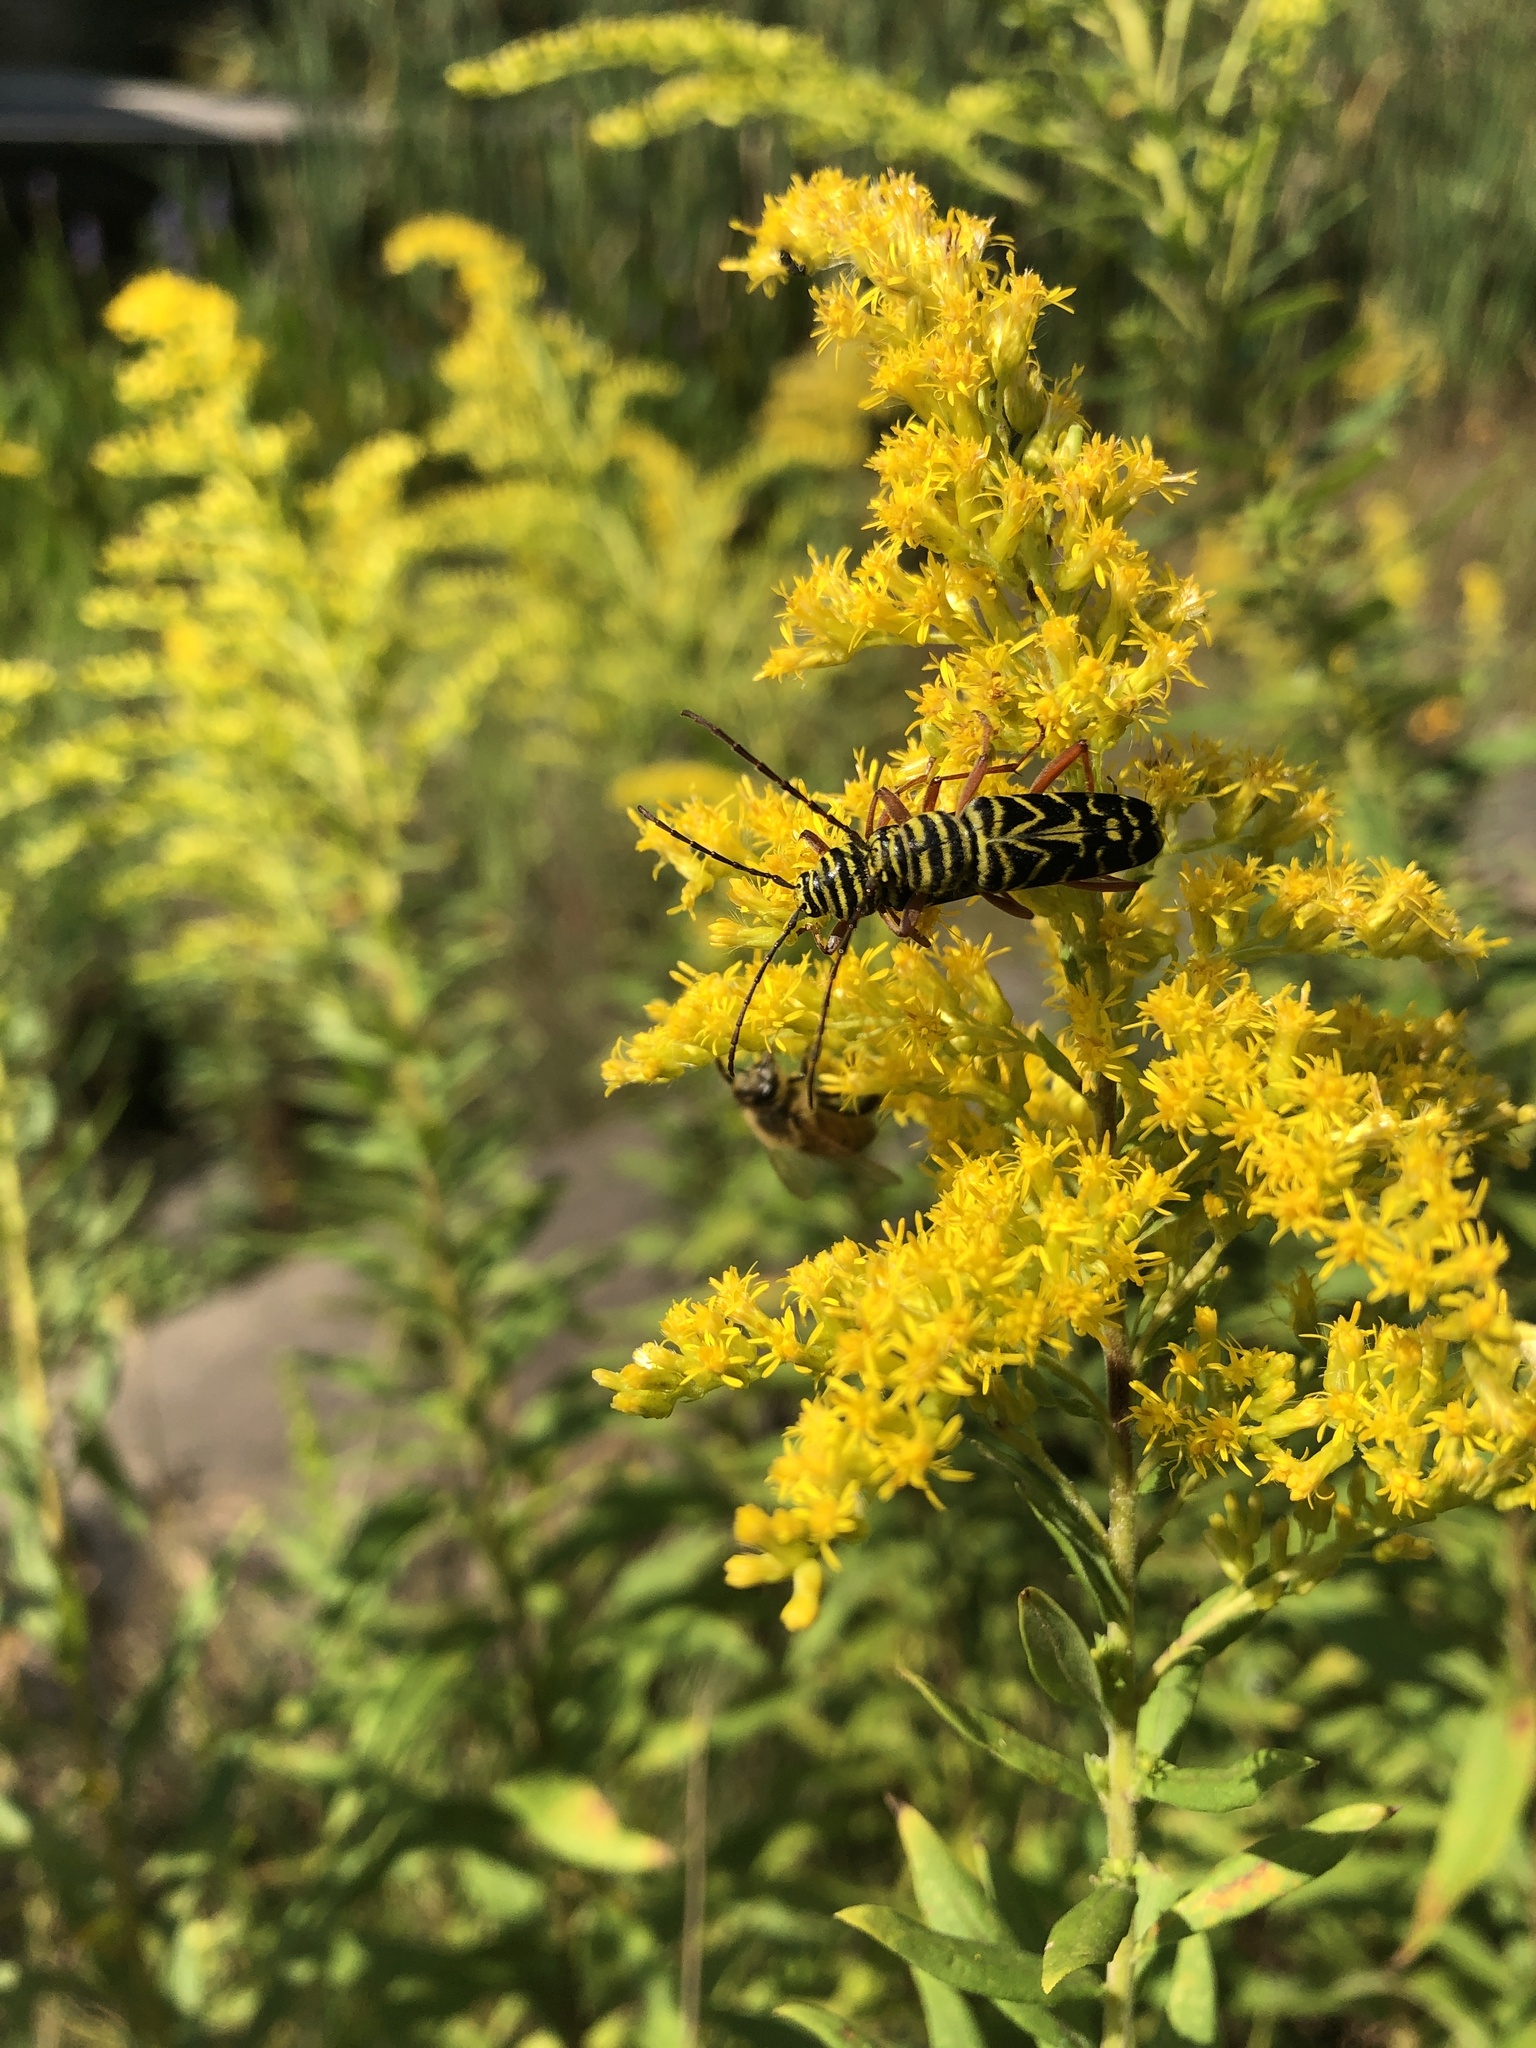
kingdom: Animalia
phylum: Arthropoda
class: Insecta
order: Coleoptera
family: Cerambycidae
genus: Megacyllene
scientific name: Megacyllene robiniae
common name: Locust borer
